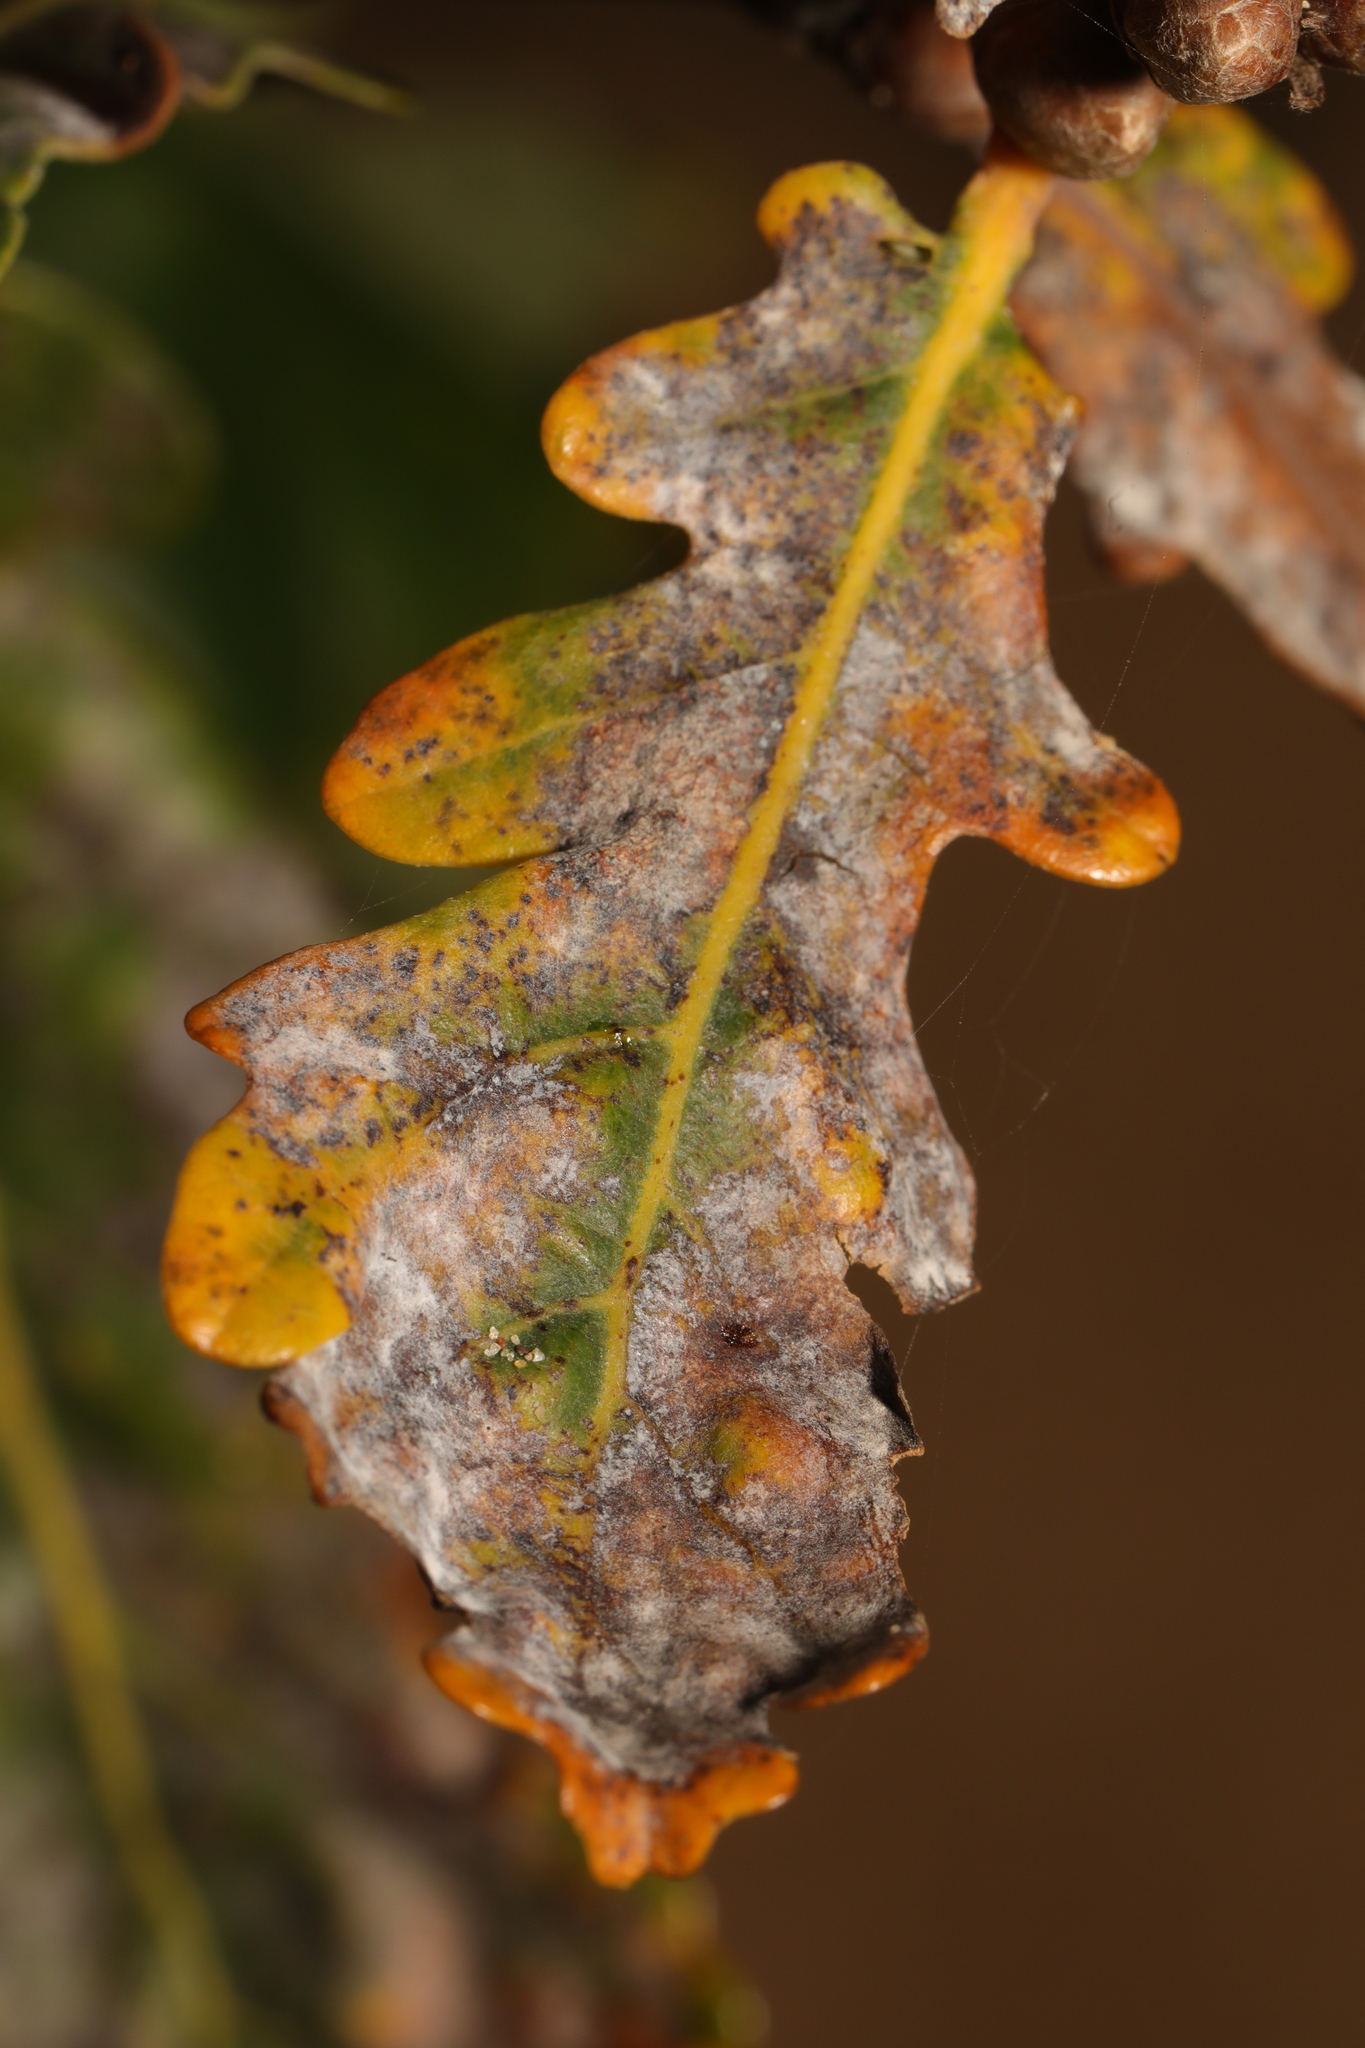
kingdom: Fungi
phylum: Ascomycota
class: Leotiomycetes
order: Helotiales
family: Erysiphaceae
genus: Erysiphe
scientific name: Erysiphe alphitoides
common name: Oak mildew
